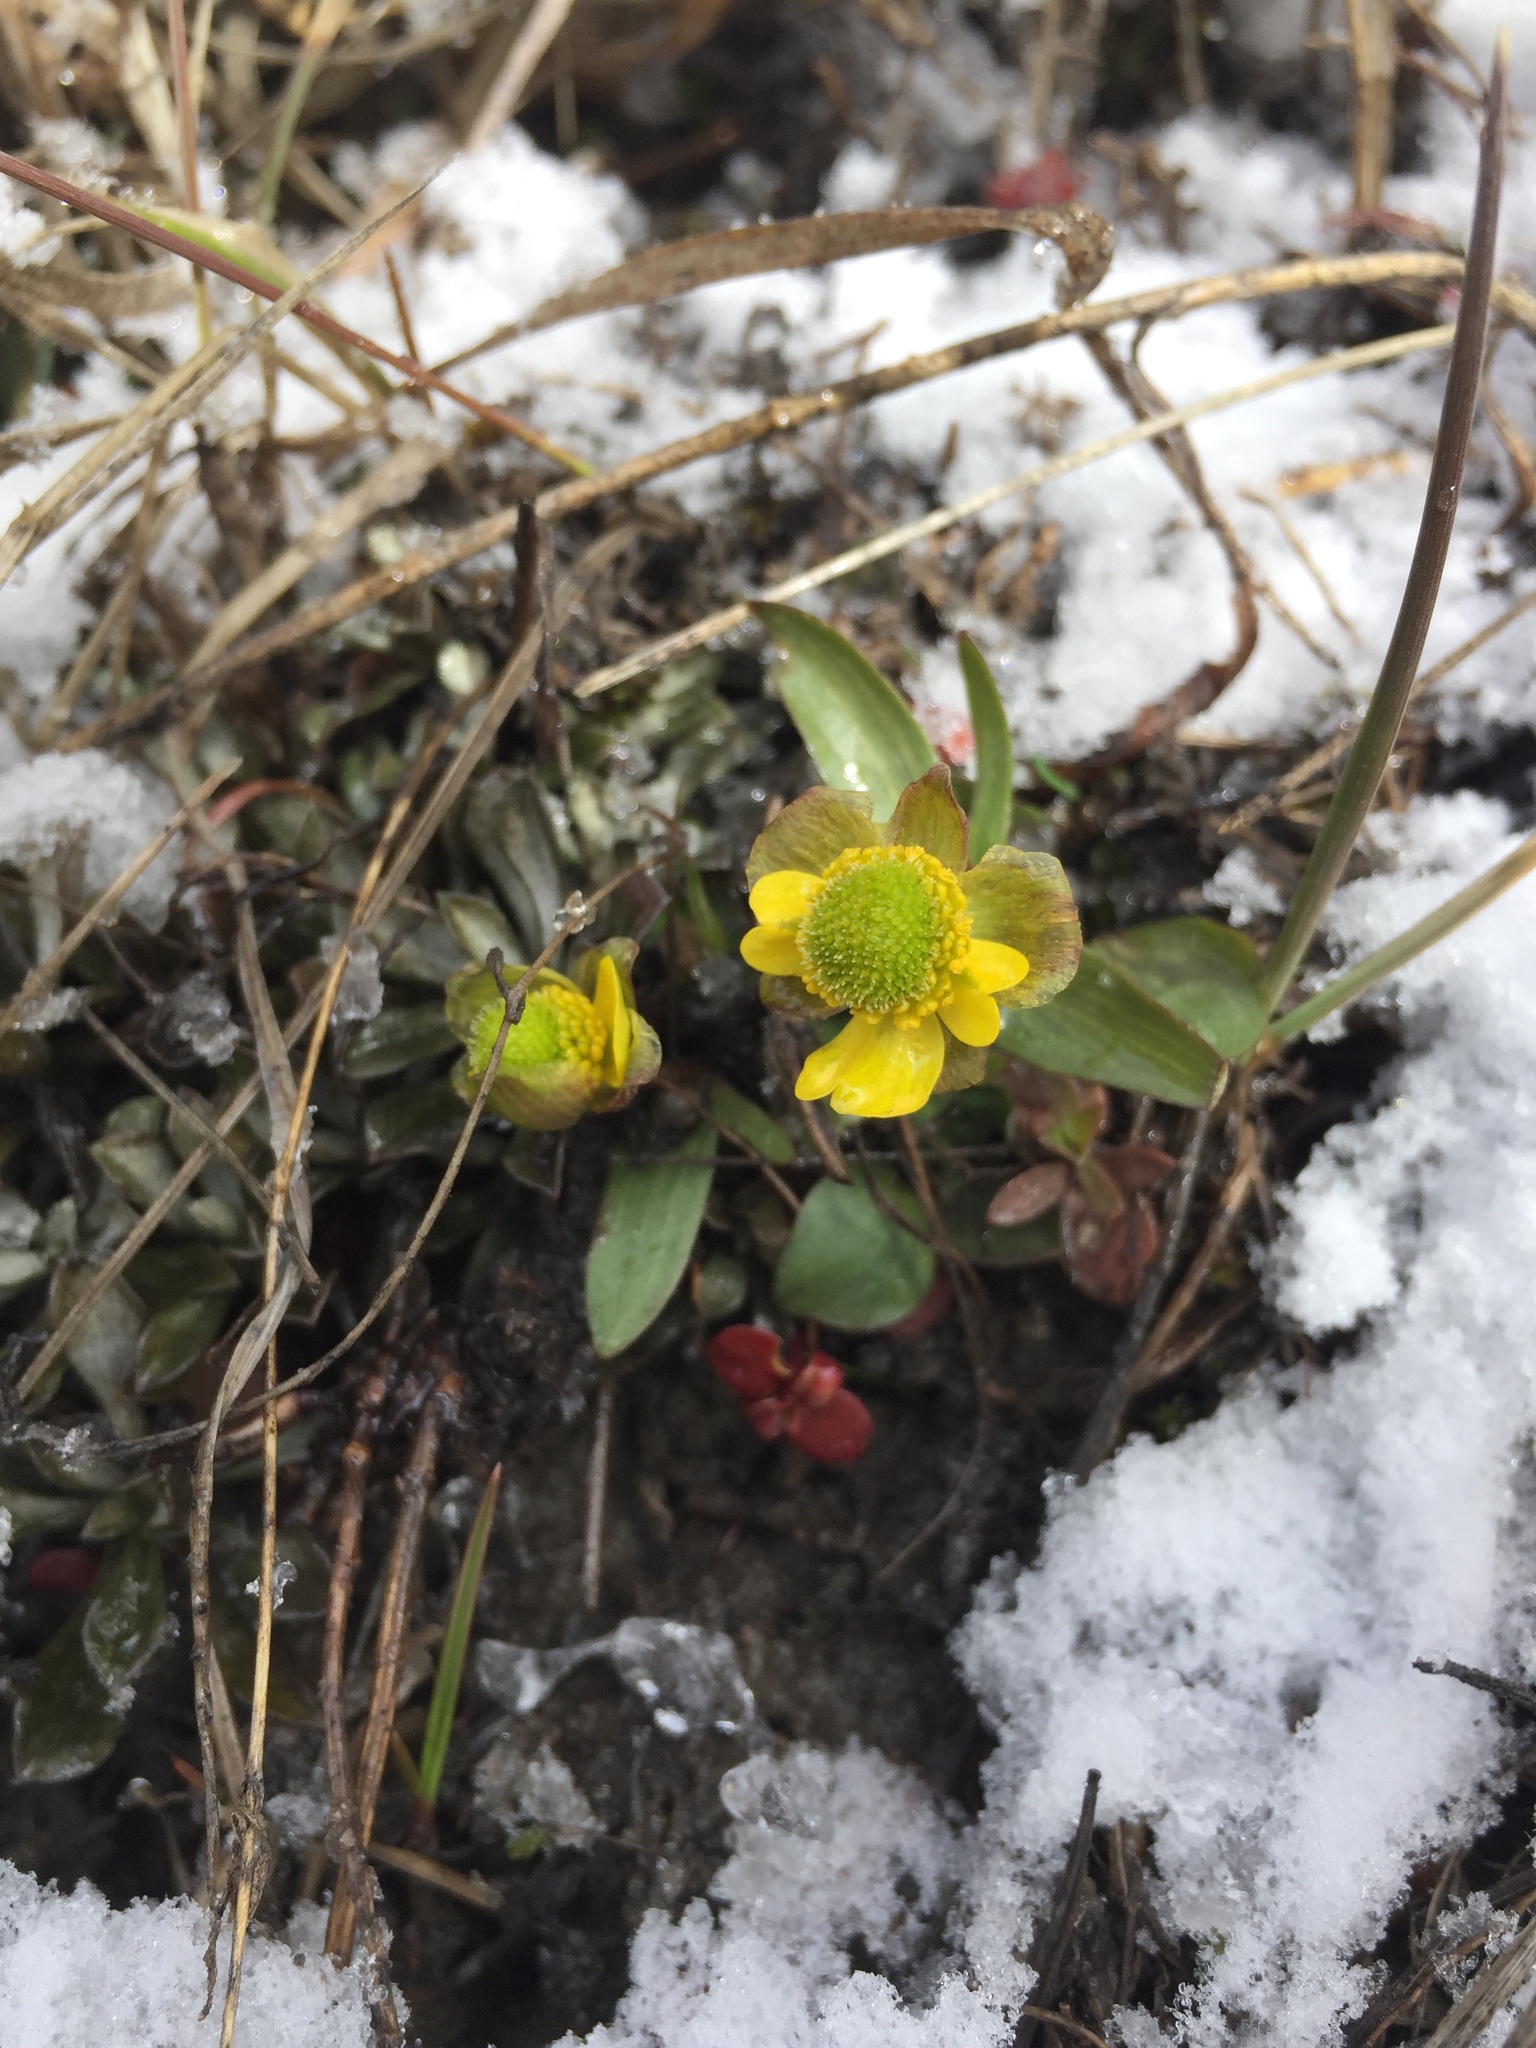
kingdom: Plantae
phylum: Tracheophyta
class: Magnoliopsida
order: Ranunculales
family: Ranunculaceae
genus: Ranunculus
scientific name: Ranunculus glaberrimus
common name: Sagebrush buttercup
